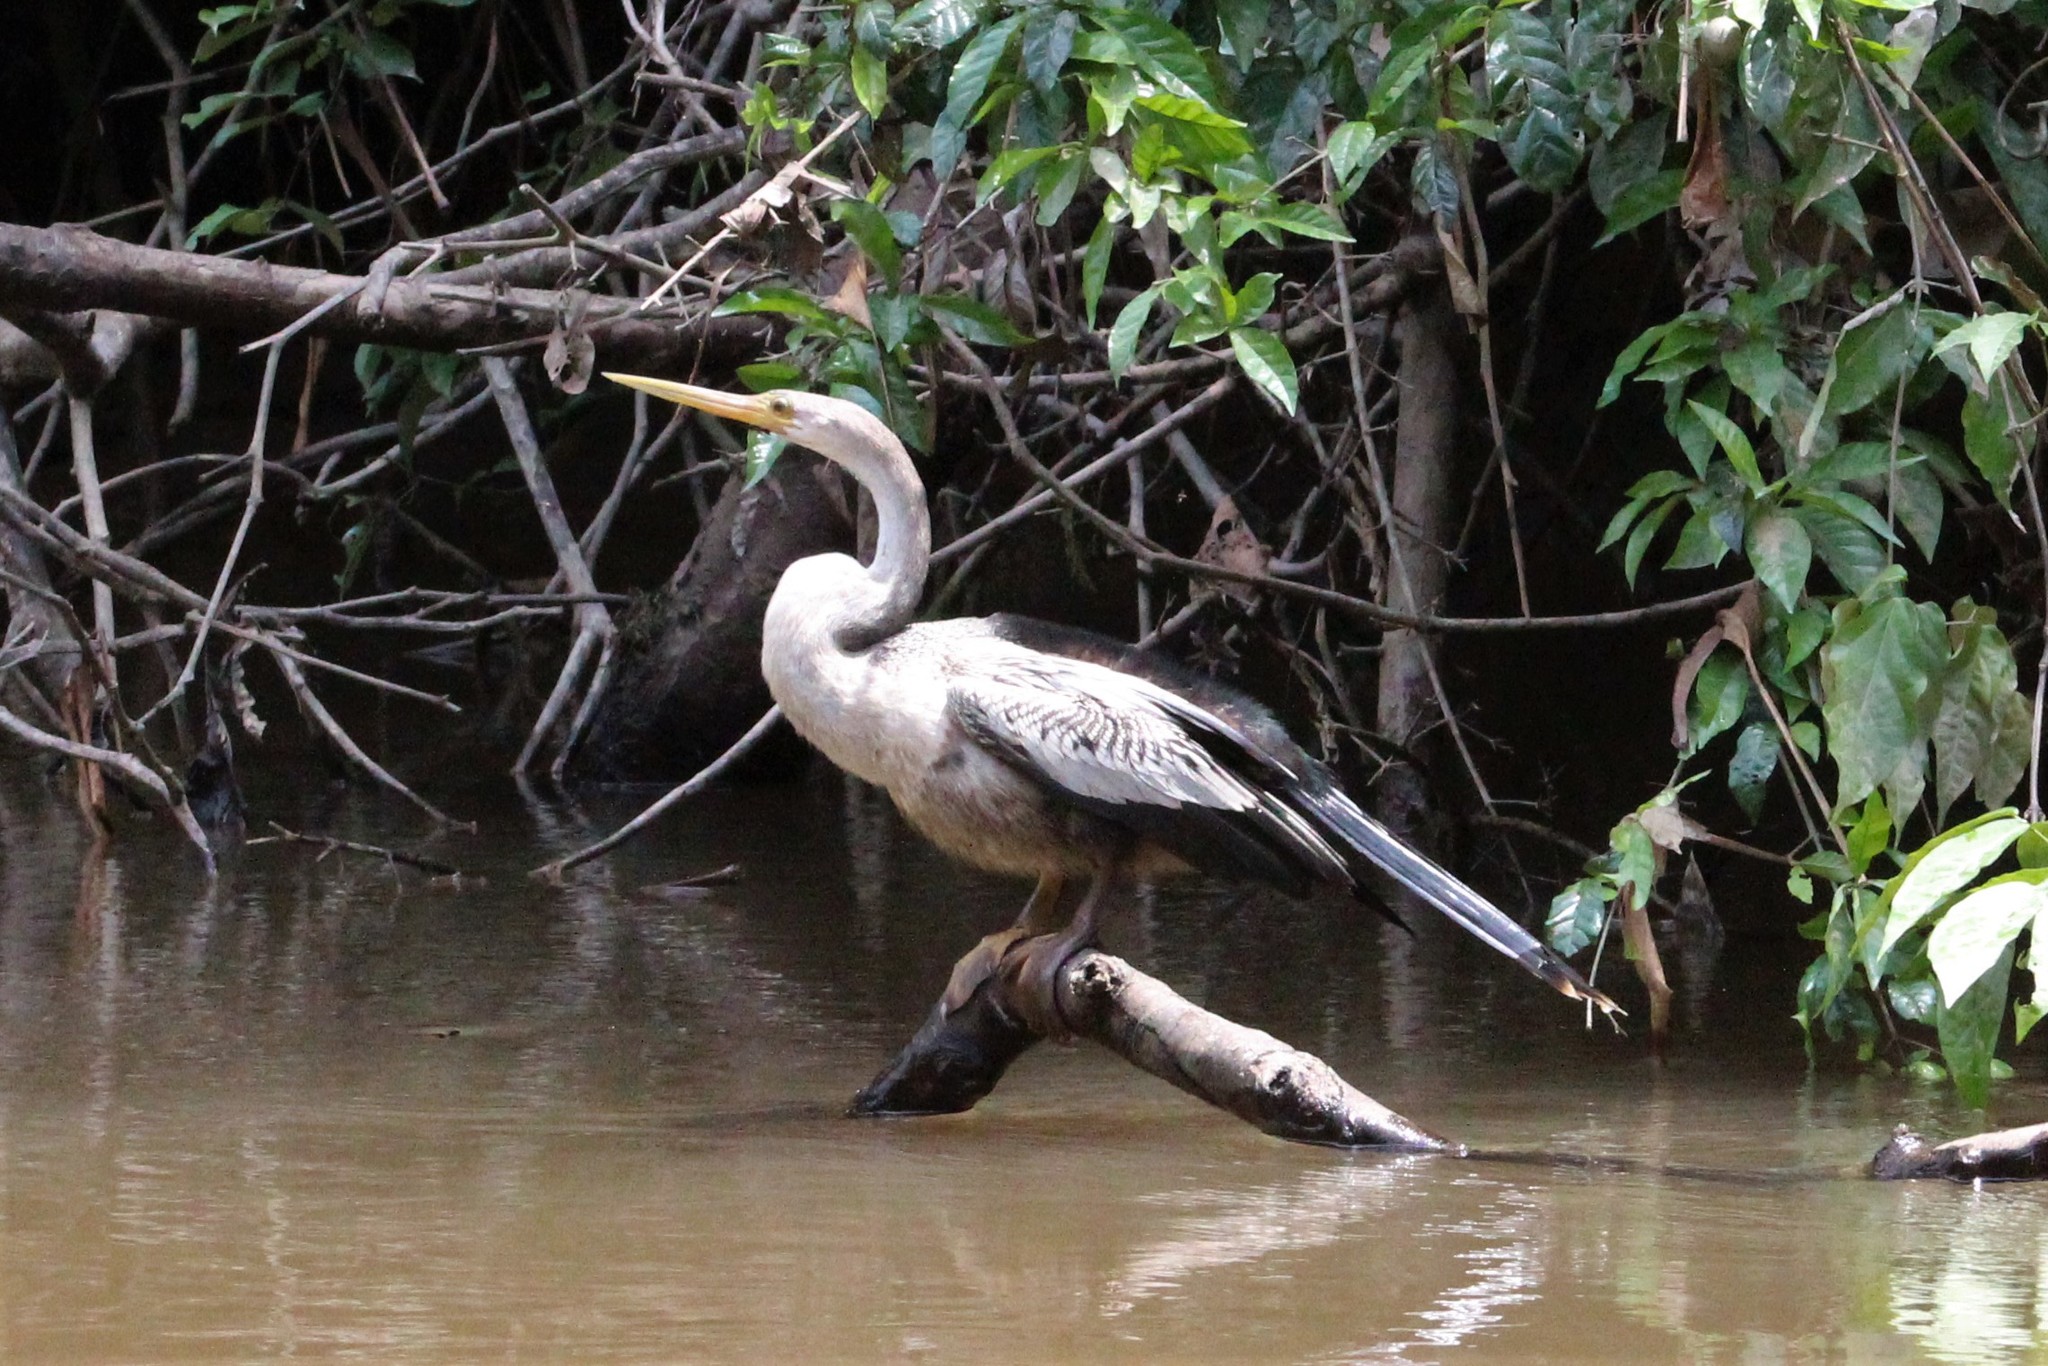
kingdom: Animalia
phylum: Chordata
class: Aves
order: Suliformes
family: Anhingidae
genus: Anhinga
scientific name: Anhinga anhinga
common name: Anhinga
